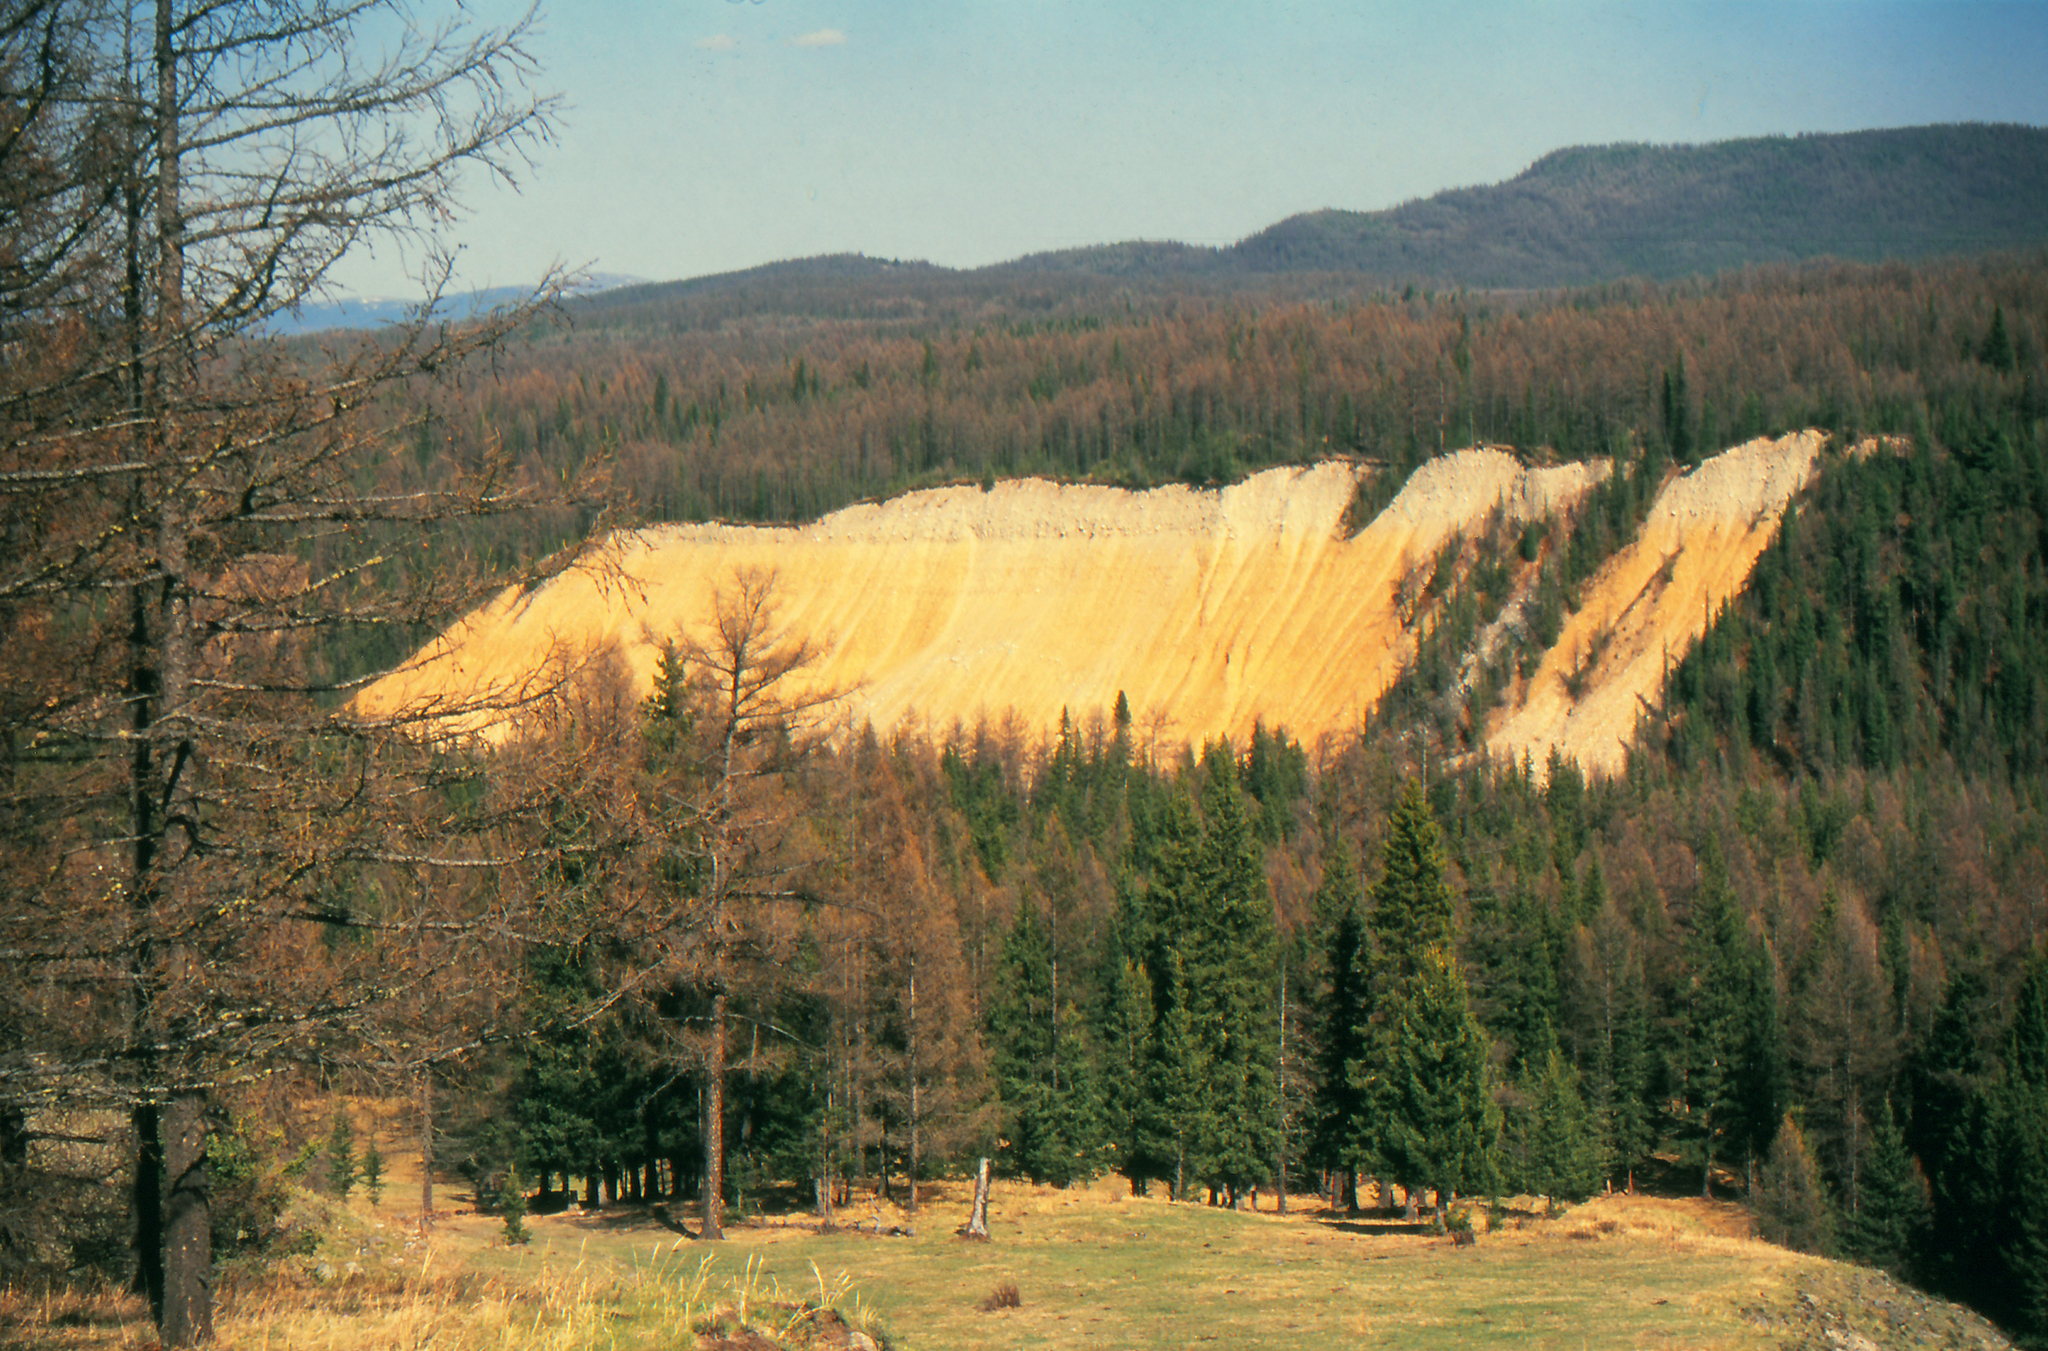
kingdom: Plantae
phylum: Tracheophyta
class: Pinopsida
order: Pinales
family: Pinaceae
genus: Larix
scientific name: Larix sibirica
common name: Siberian larch
